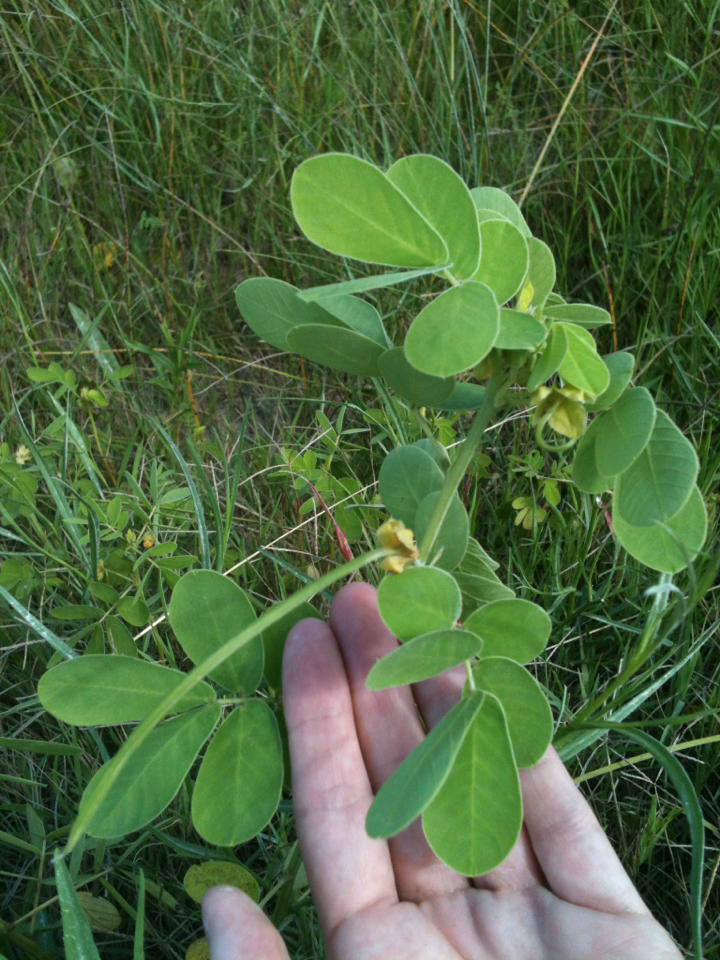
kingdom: Plantae
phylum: Tracheophyta
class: Magnoliopsida
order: Fabales
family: Fabaceae
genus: Senna
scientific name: Senna obtusifolia
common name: Java-bean
